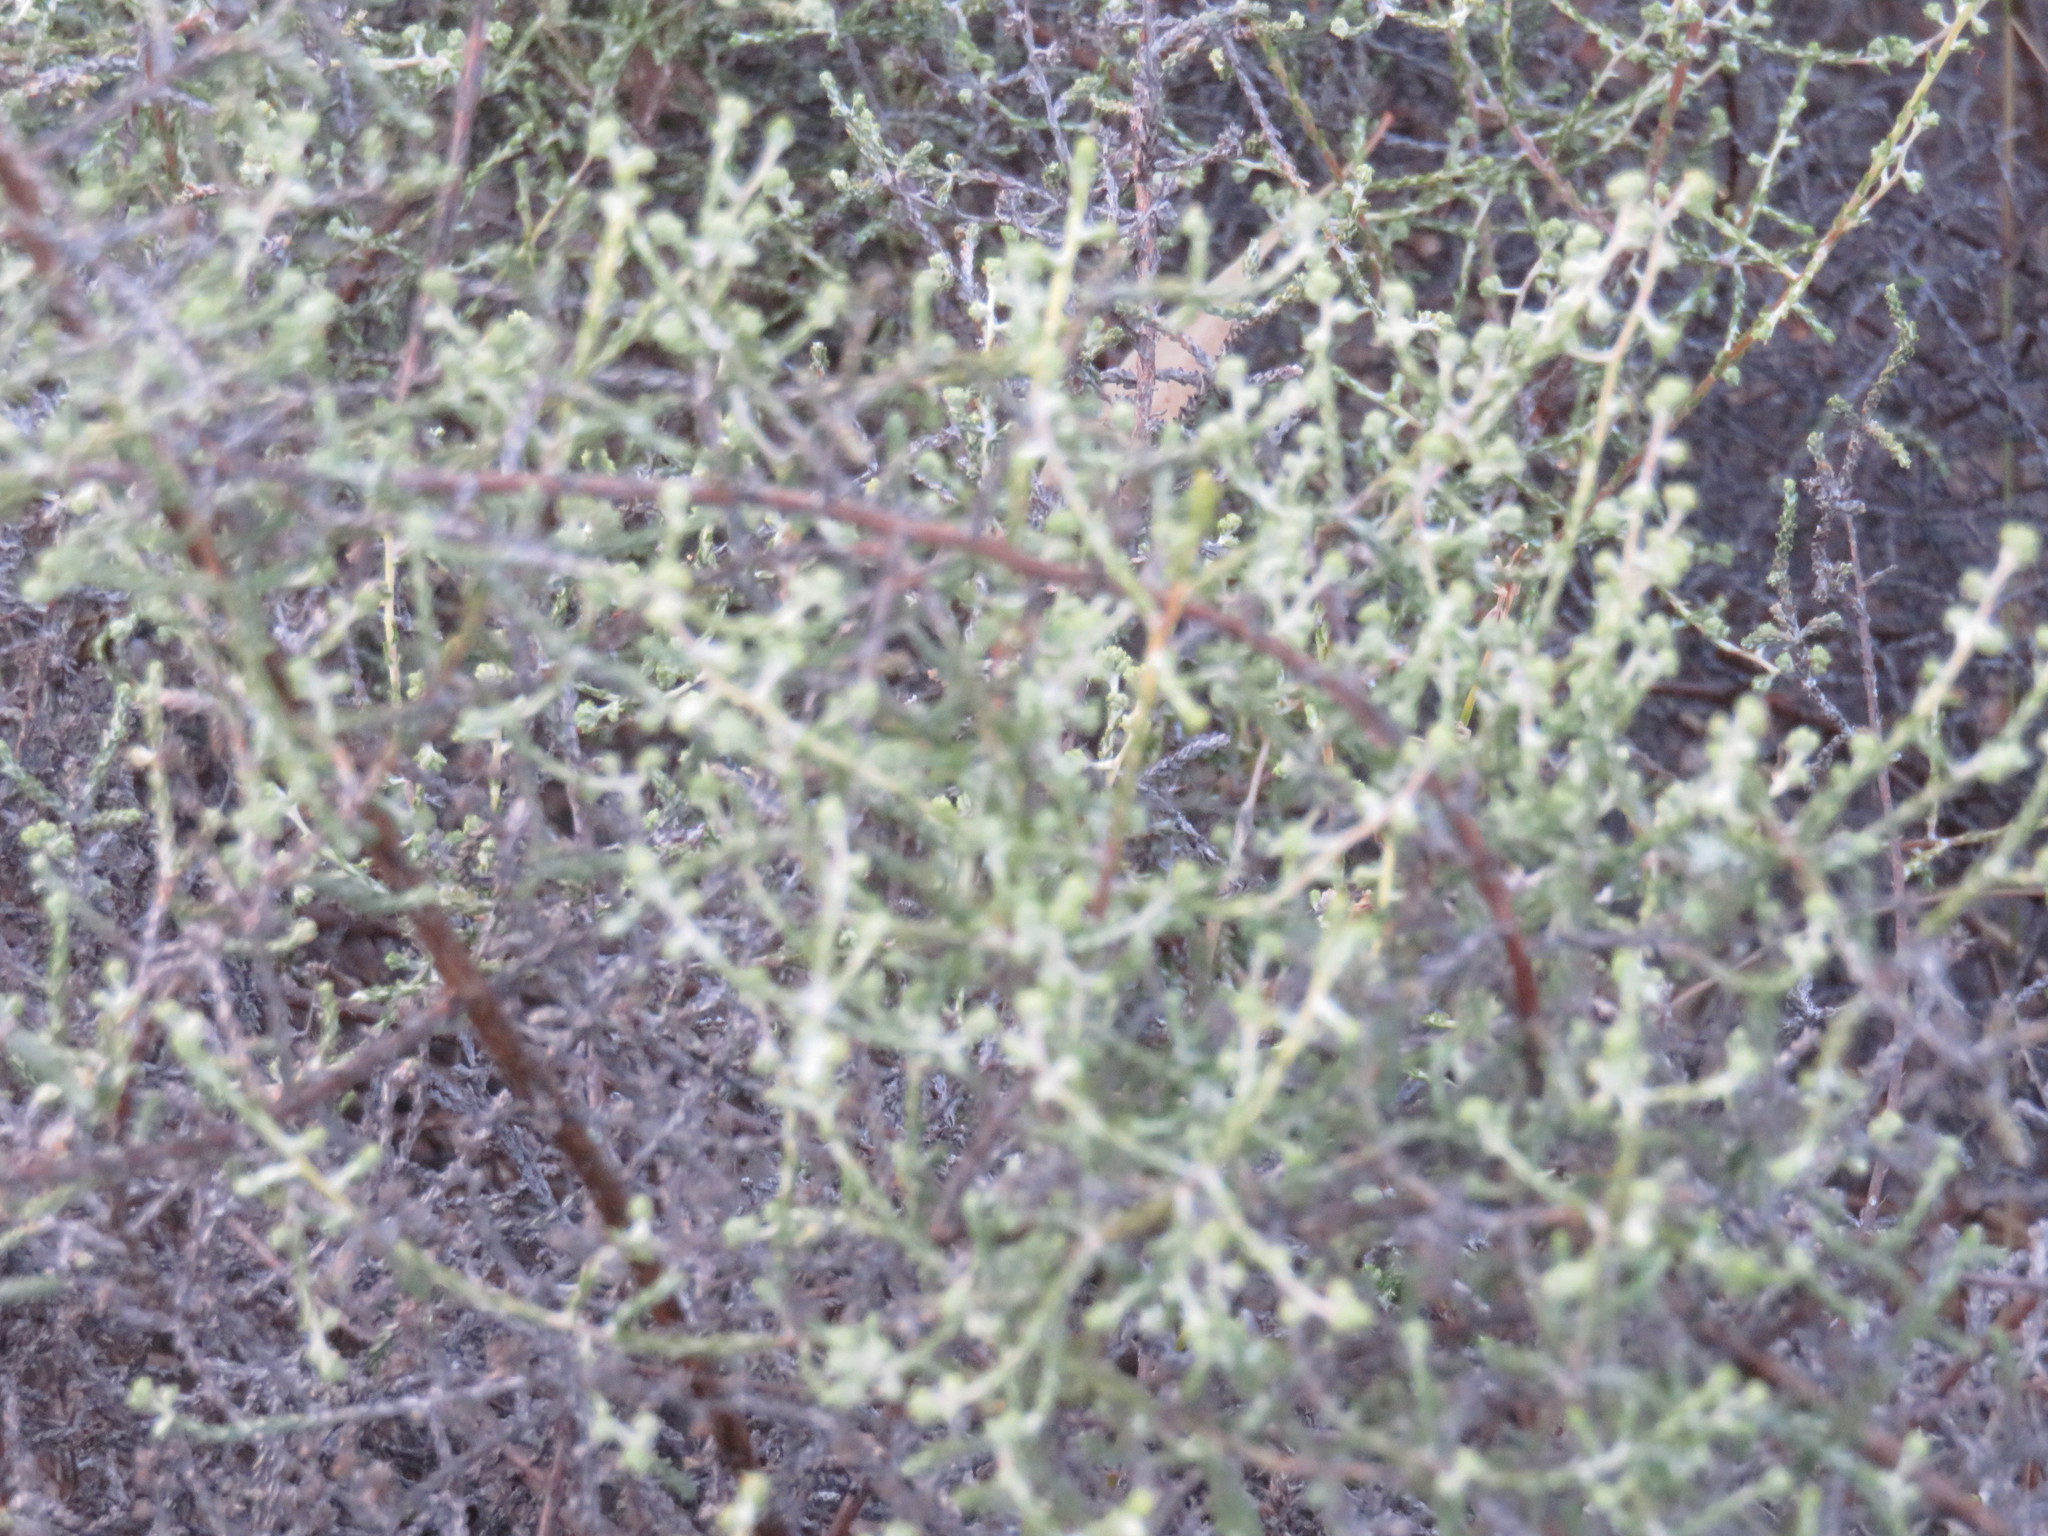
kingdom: Plantae
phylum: Tracheophyta
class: Magnoliopsida
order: Asterales
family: Asteraceae
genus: Seriphium
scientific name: Seriphium plumosum
